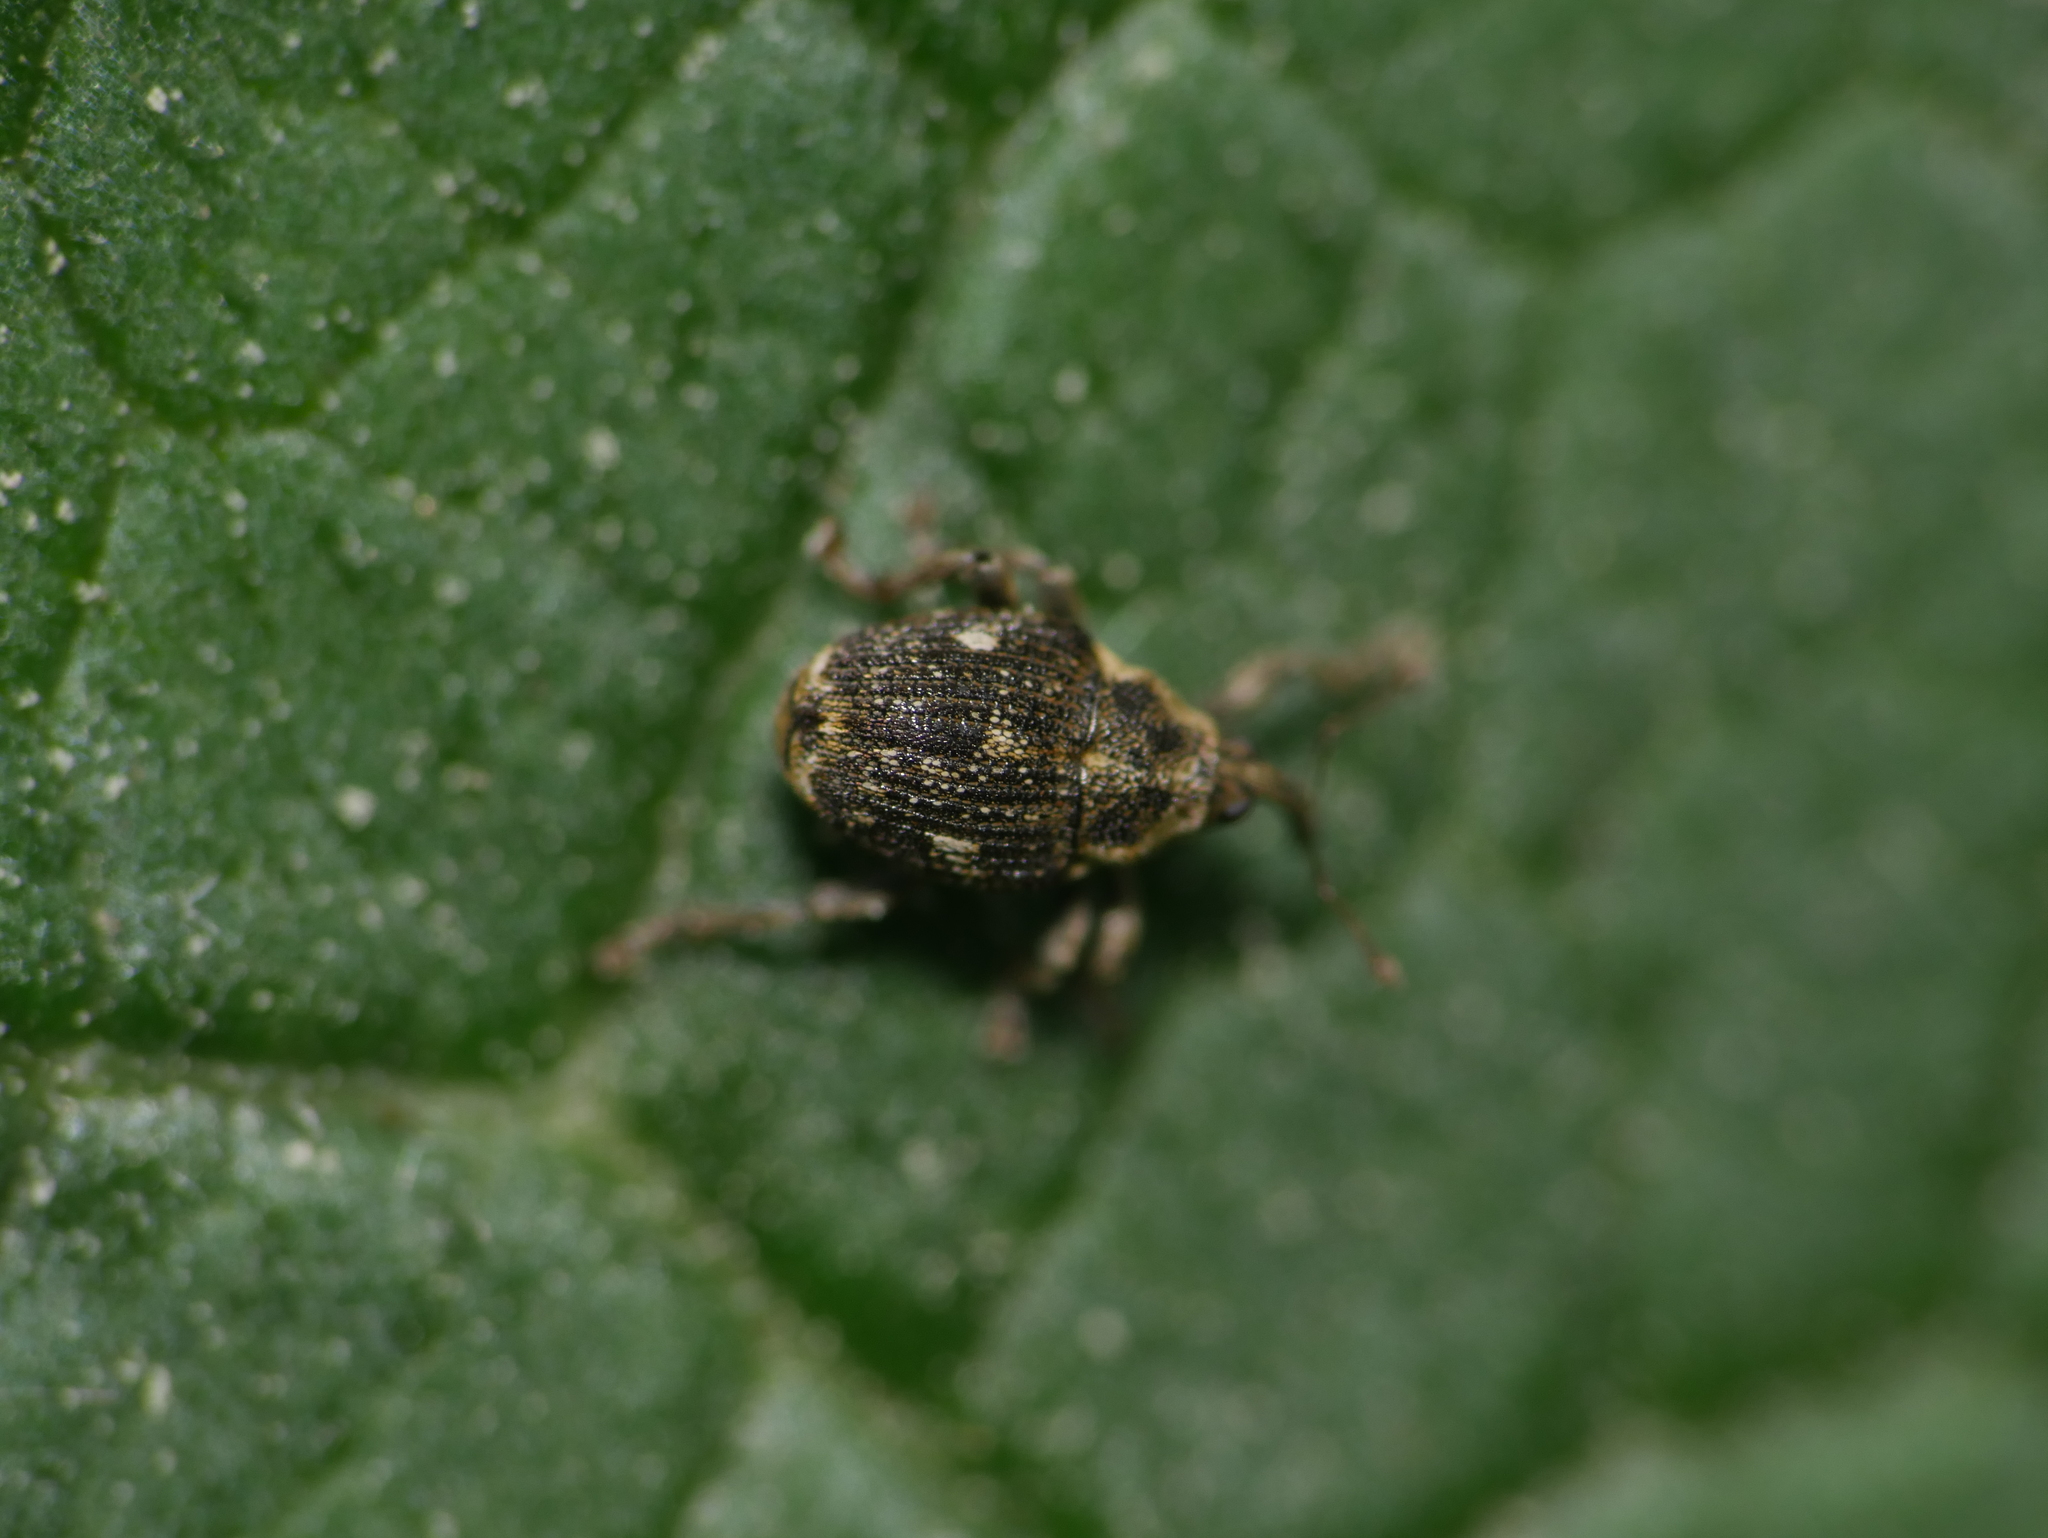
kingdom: Animalia
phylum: Arthropoda
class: Insecta
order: Coleoptera
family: Curculionidae
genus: Nedyus
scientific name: Nedyus quadrimaculatus
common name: Small nettle weevil
